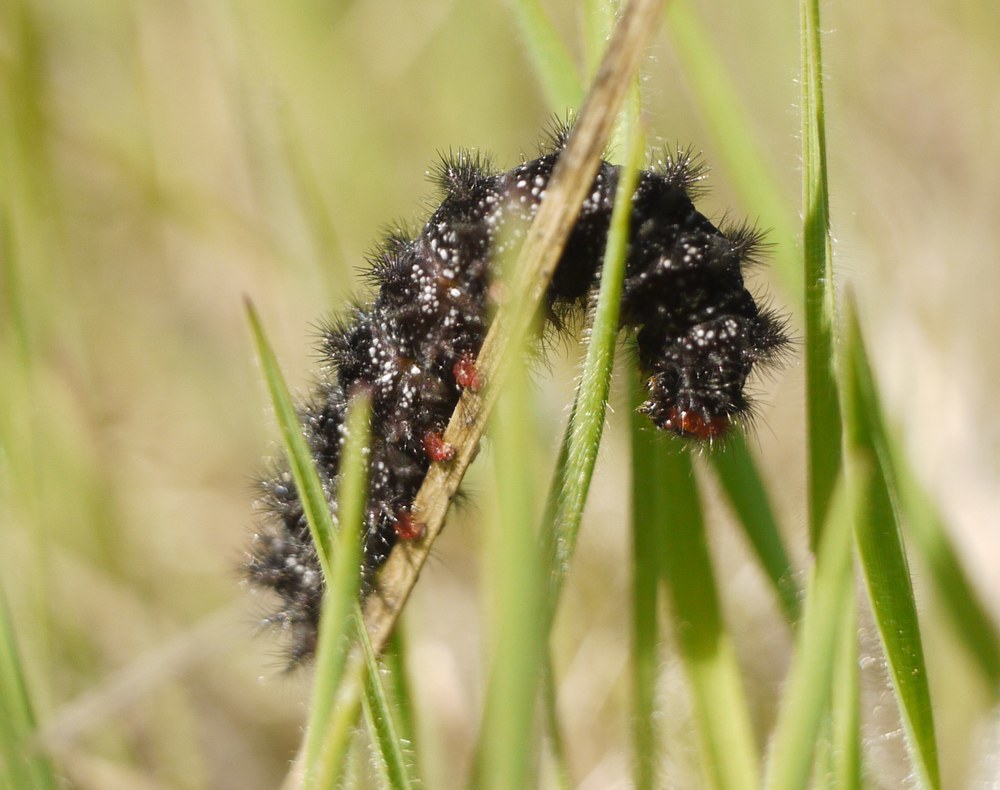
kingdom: Animalia
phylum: Arthropoda
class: Insecta
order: Lepidoptera
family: Nymphalidae
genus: Melitaea
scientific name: Melitaea cinxia
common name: Glanville fritillary
